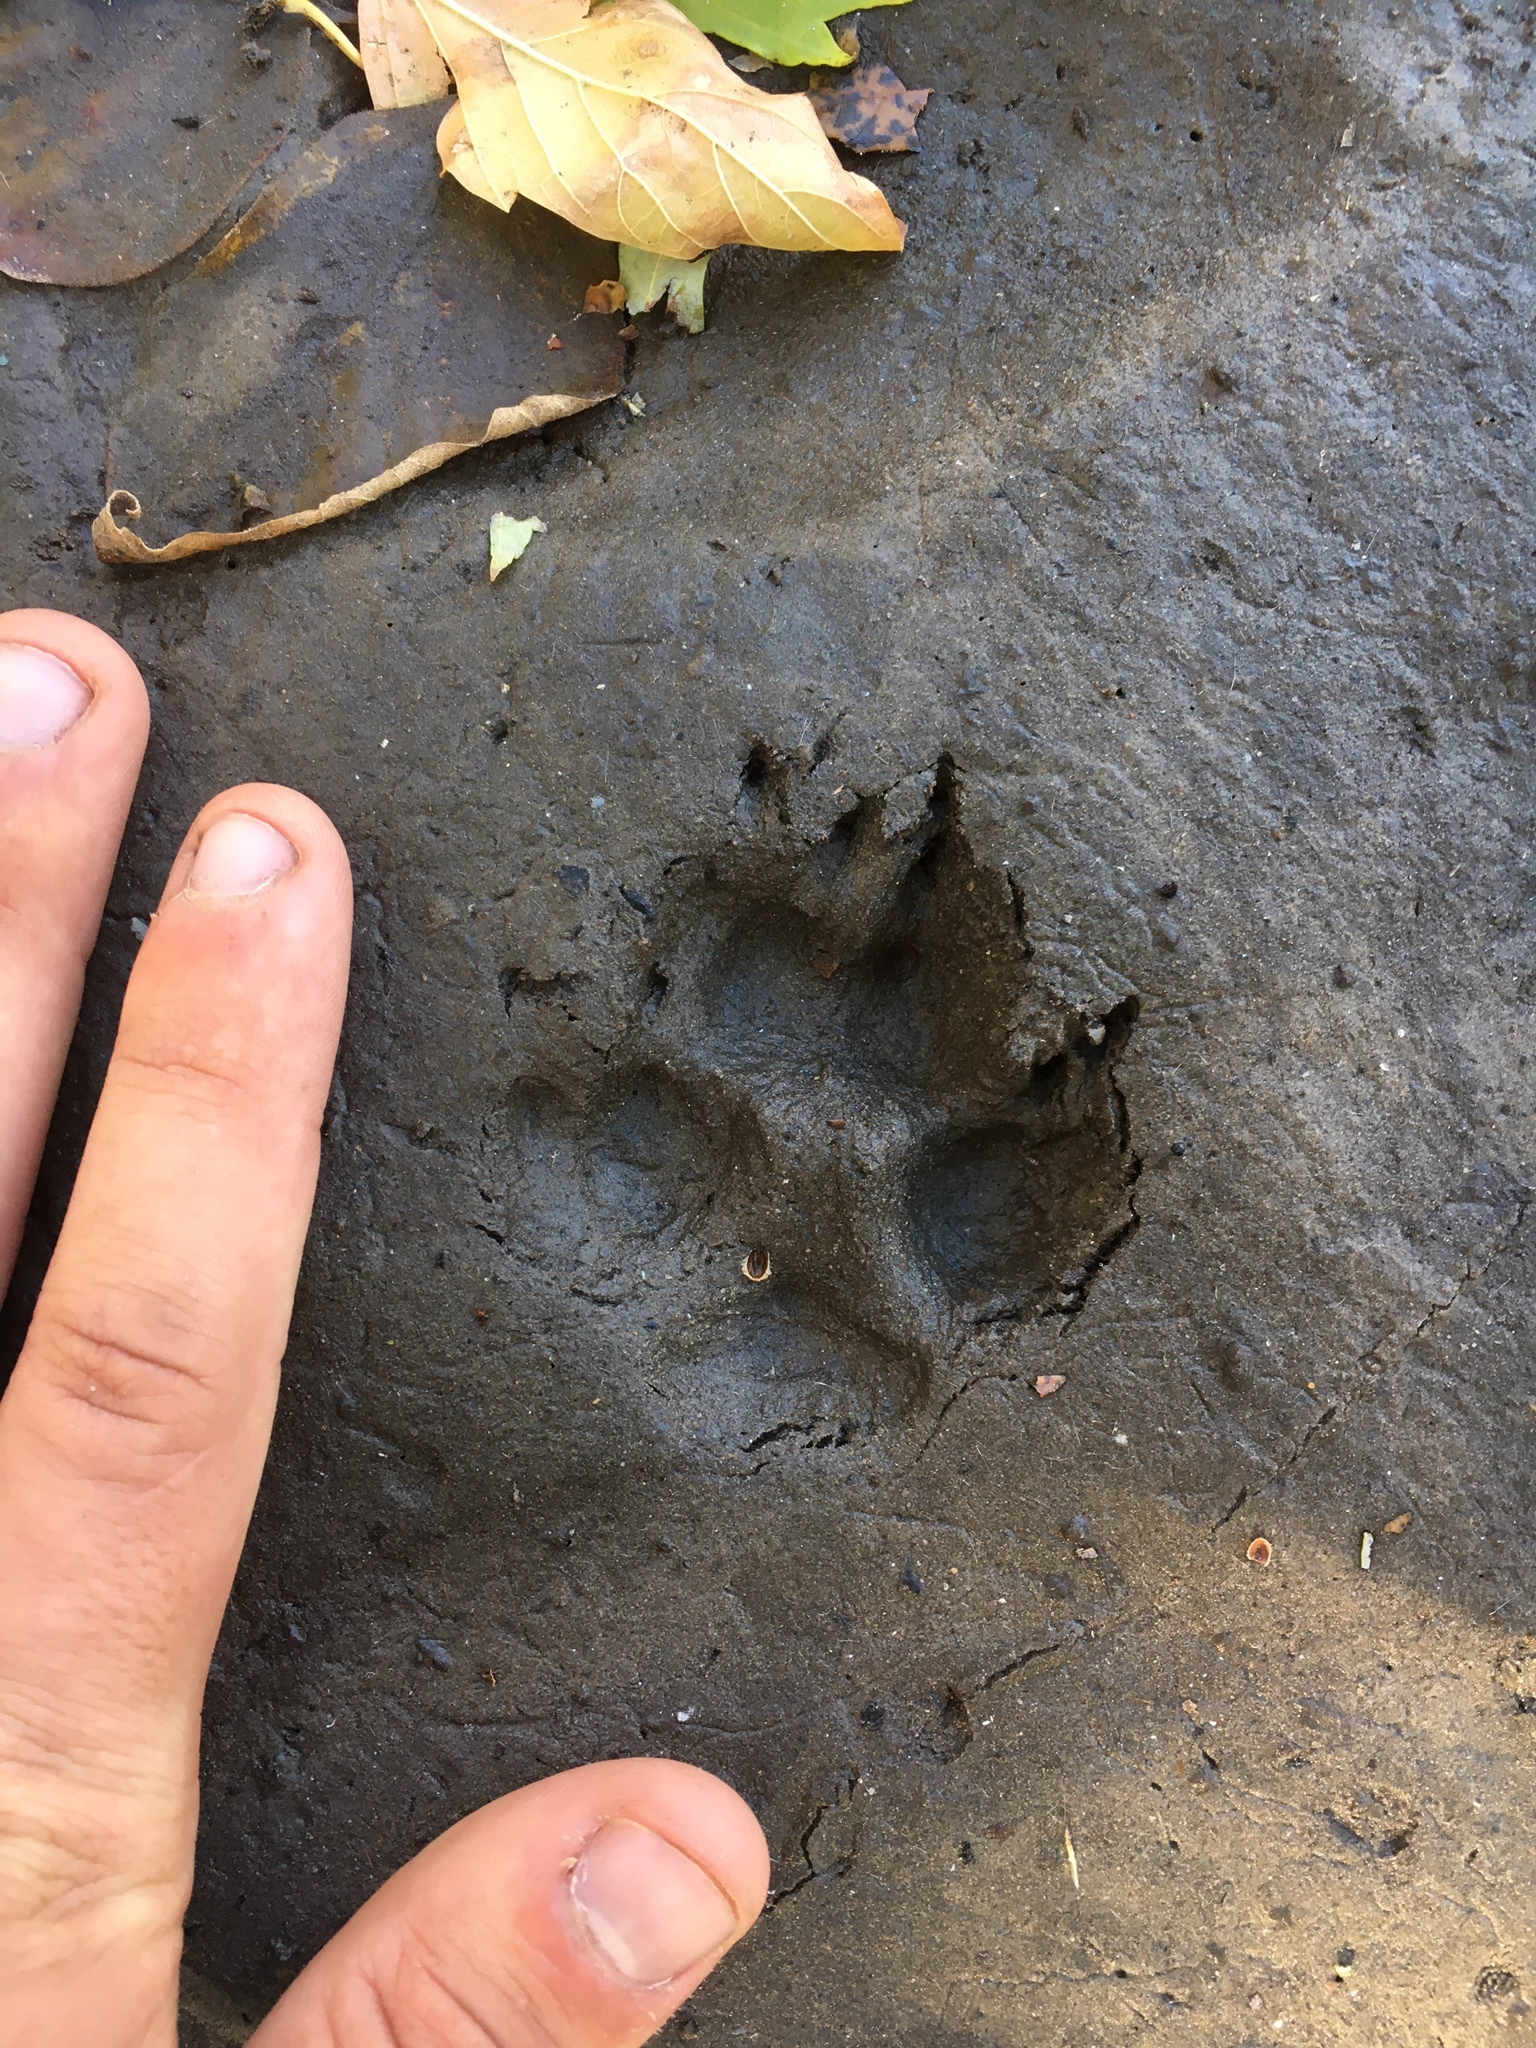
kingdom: Animalia
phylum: Chordata
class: Mammalia
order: Carnivora
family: Canidae
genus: Urocyon
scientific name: Urocyon cinereoargenteus
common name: Gray fox
